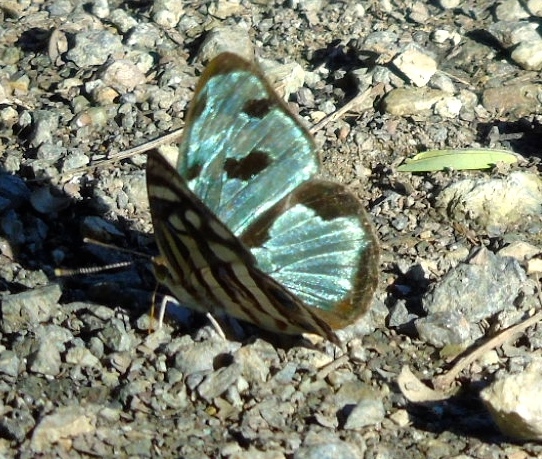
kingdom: Animalia
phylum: Arthropoda
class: Insecta
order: Lepidoptera
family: Nymphalidae
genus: Dynamine
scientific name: Dynamine mylitta
